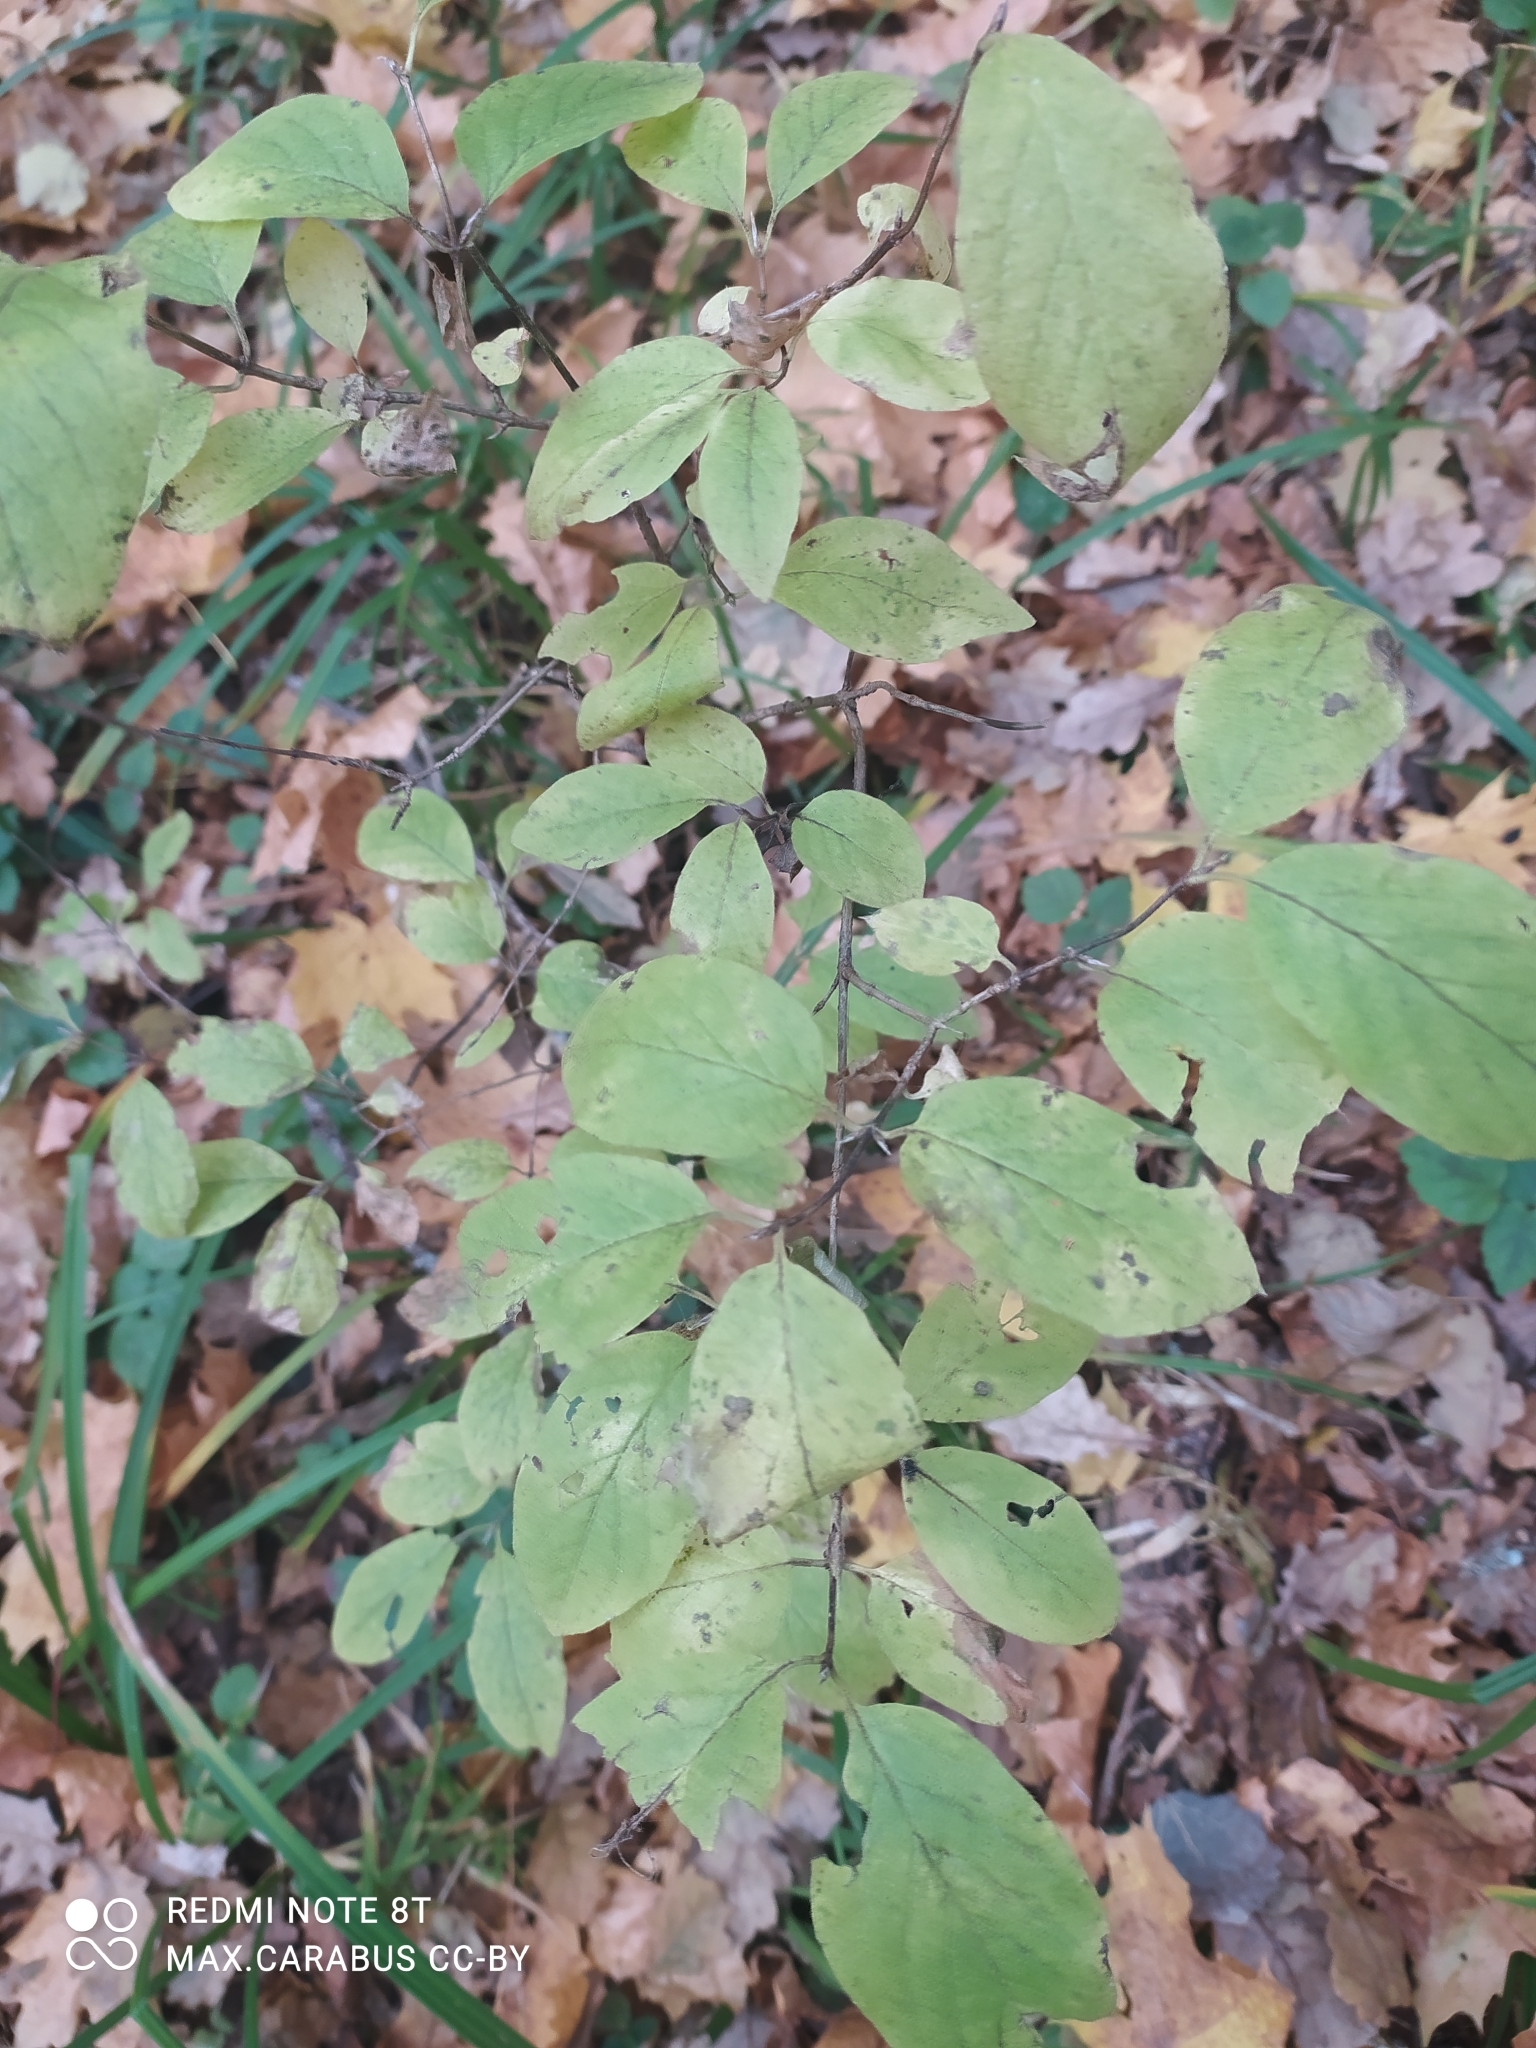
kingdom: Plantae
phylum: Tracheophyta
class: Magnoliopsida
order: Dipsacales
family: Caprifoliaceae
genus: Lonicera
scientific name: Lonicera xylosteum
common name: Fly honeysuckle
